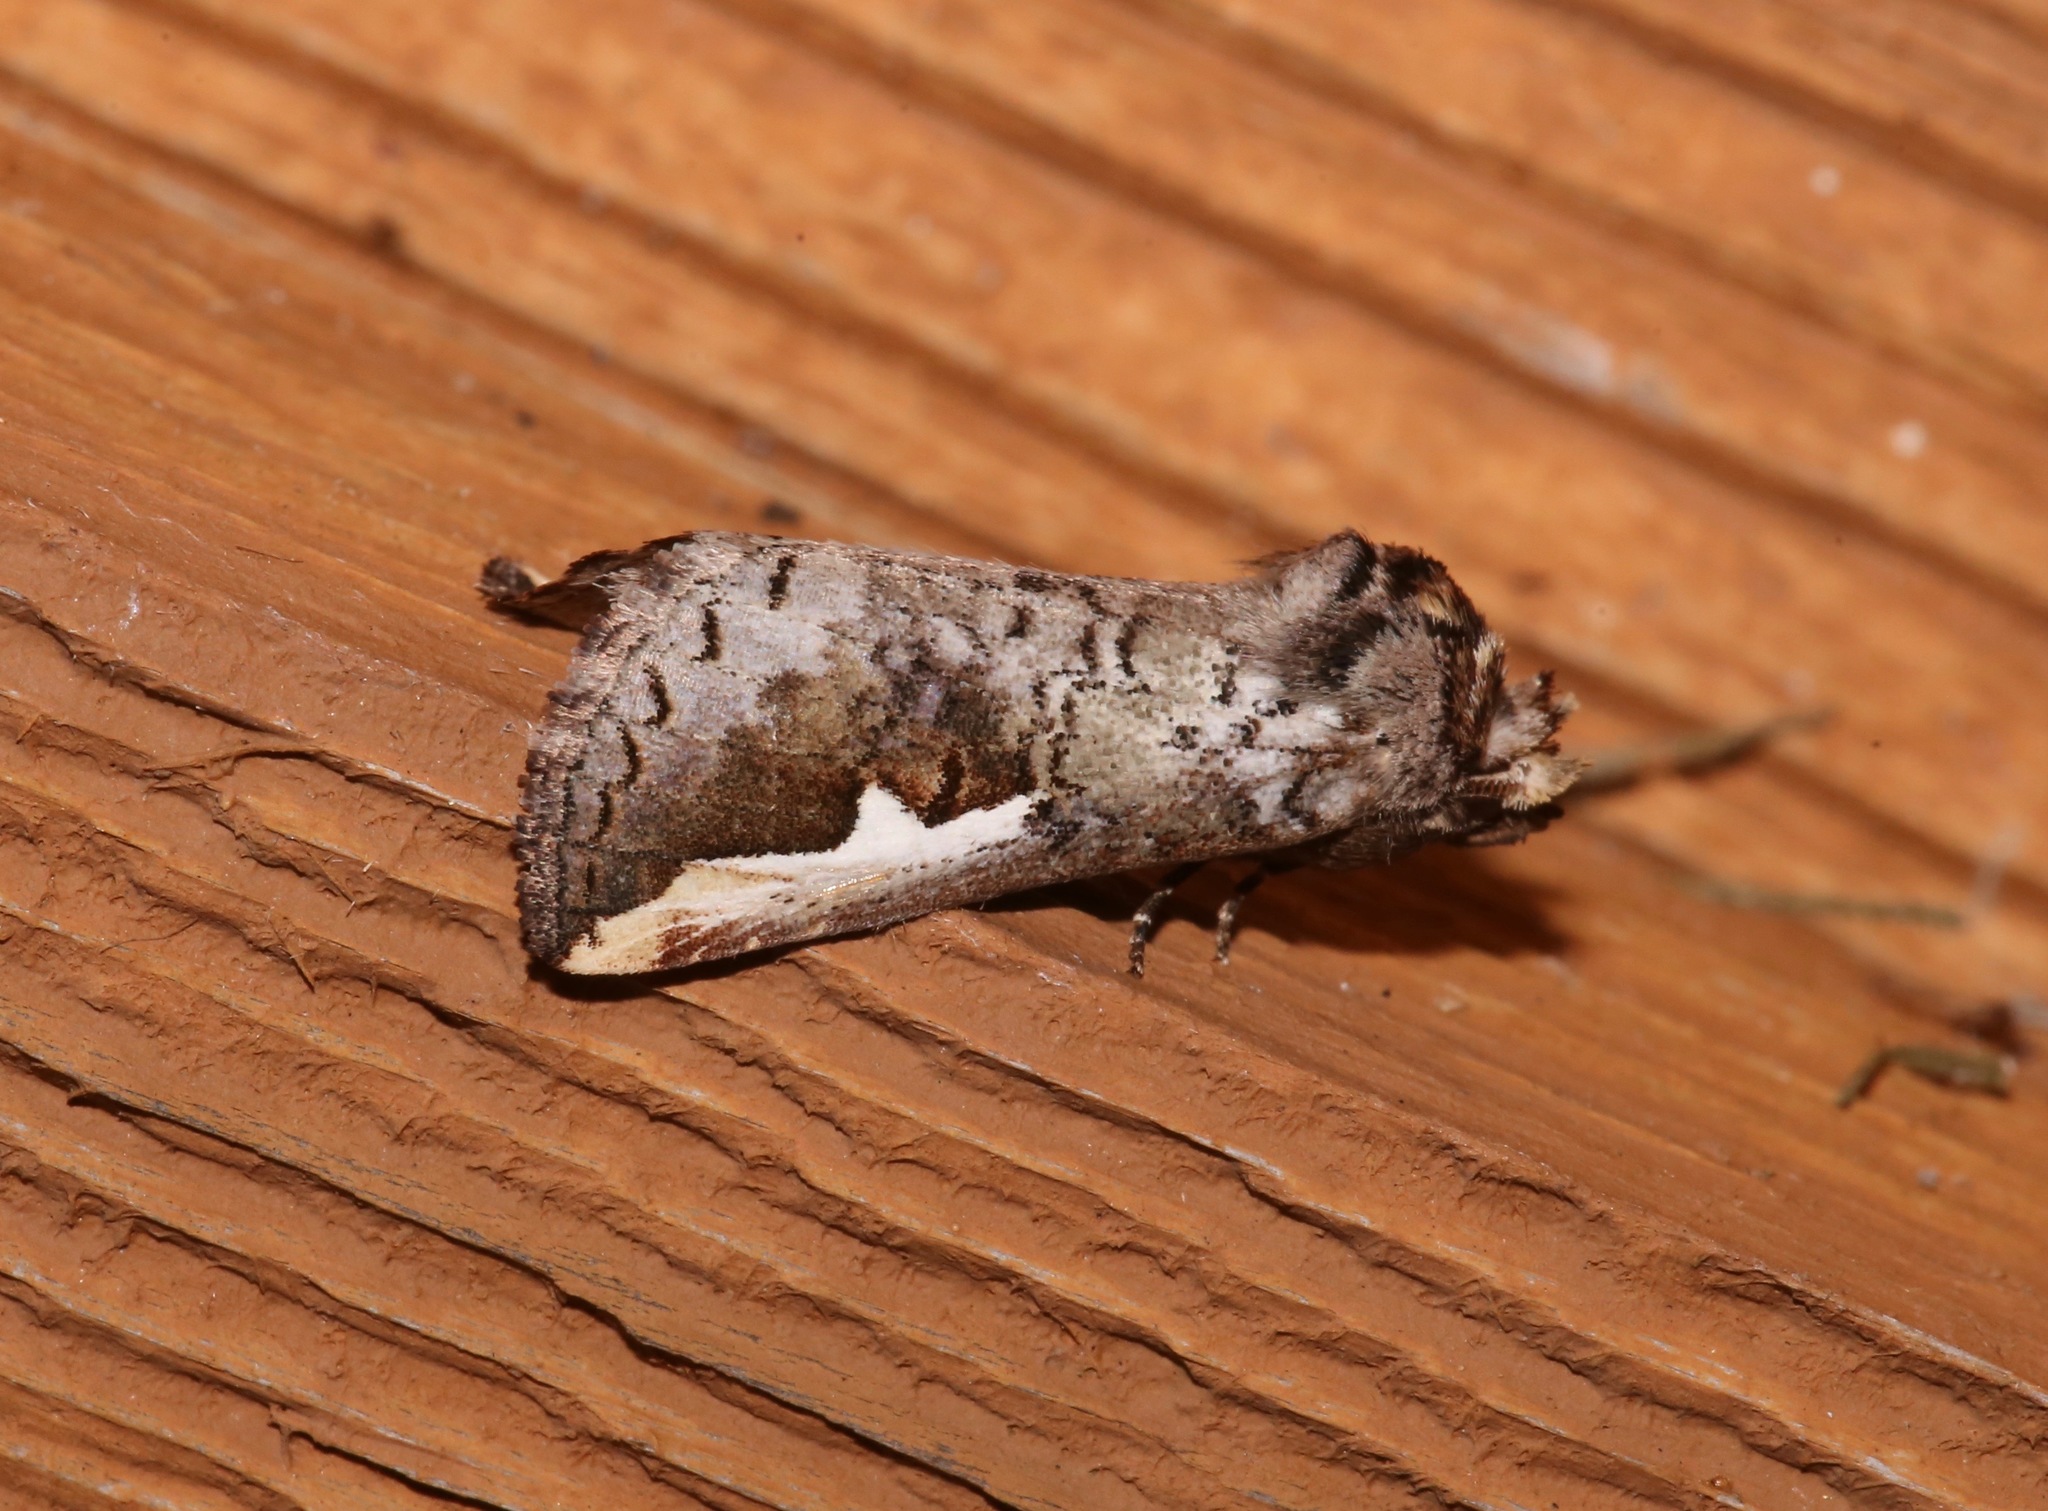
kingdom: Animalia
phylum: Arthropoda
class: Insecta
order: Lepidoptera
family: Notodontidae
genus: Symmerista
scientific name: Symmerista albifrons
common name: White-headed prominent
